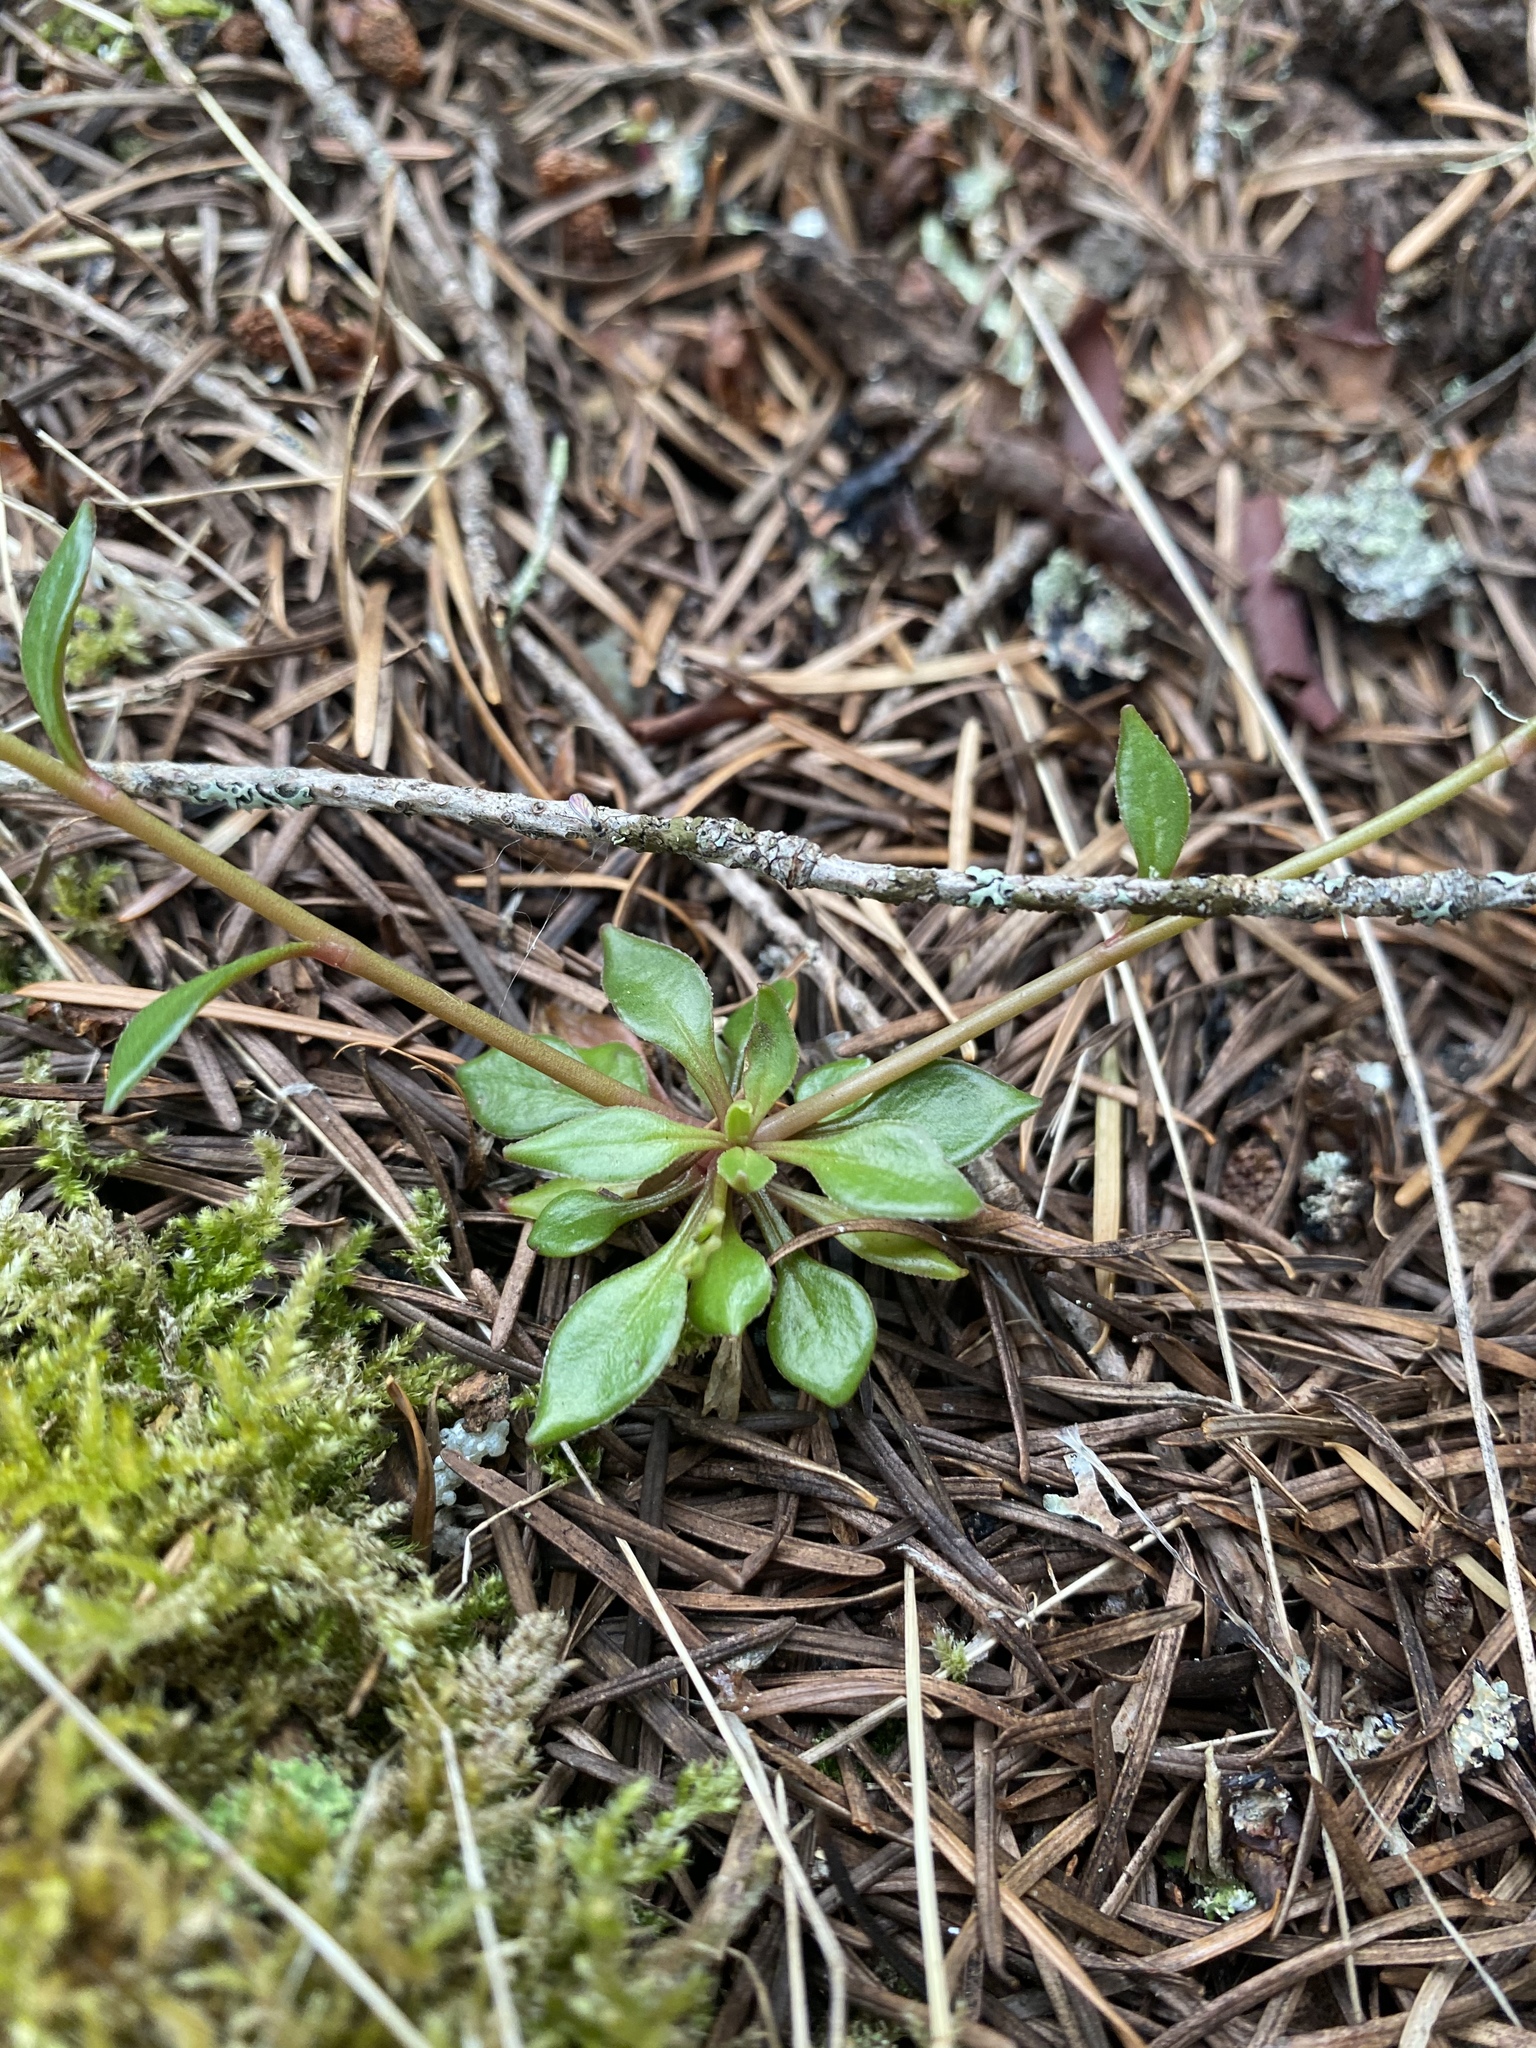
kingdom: Plantae
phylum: Tracheophyta
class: Magnoliopsida
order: Caryophyllales
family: Montiaceae
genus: Montia
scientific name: Montia parvifolia
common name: Small-leaved blinks
